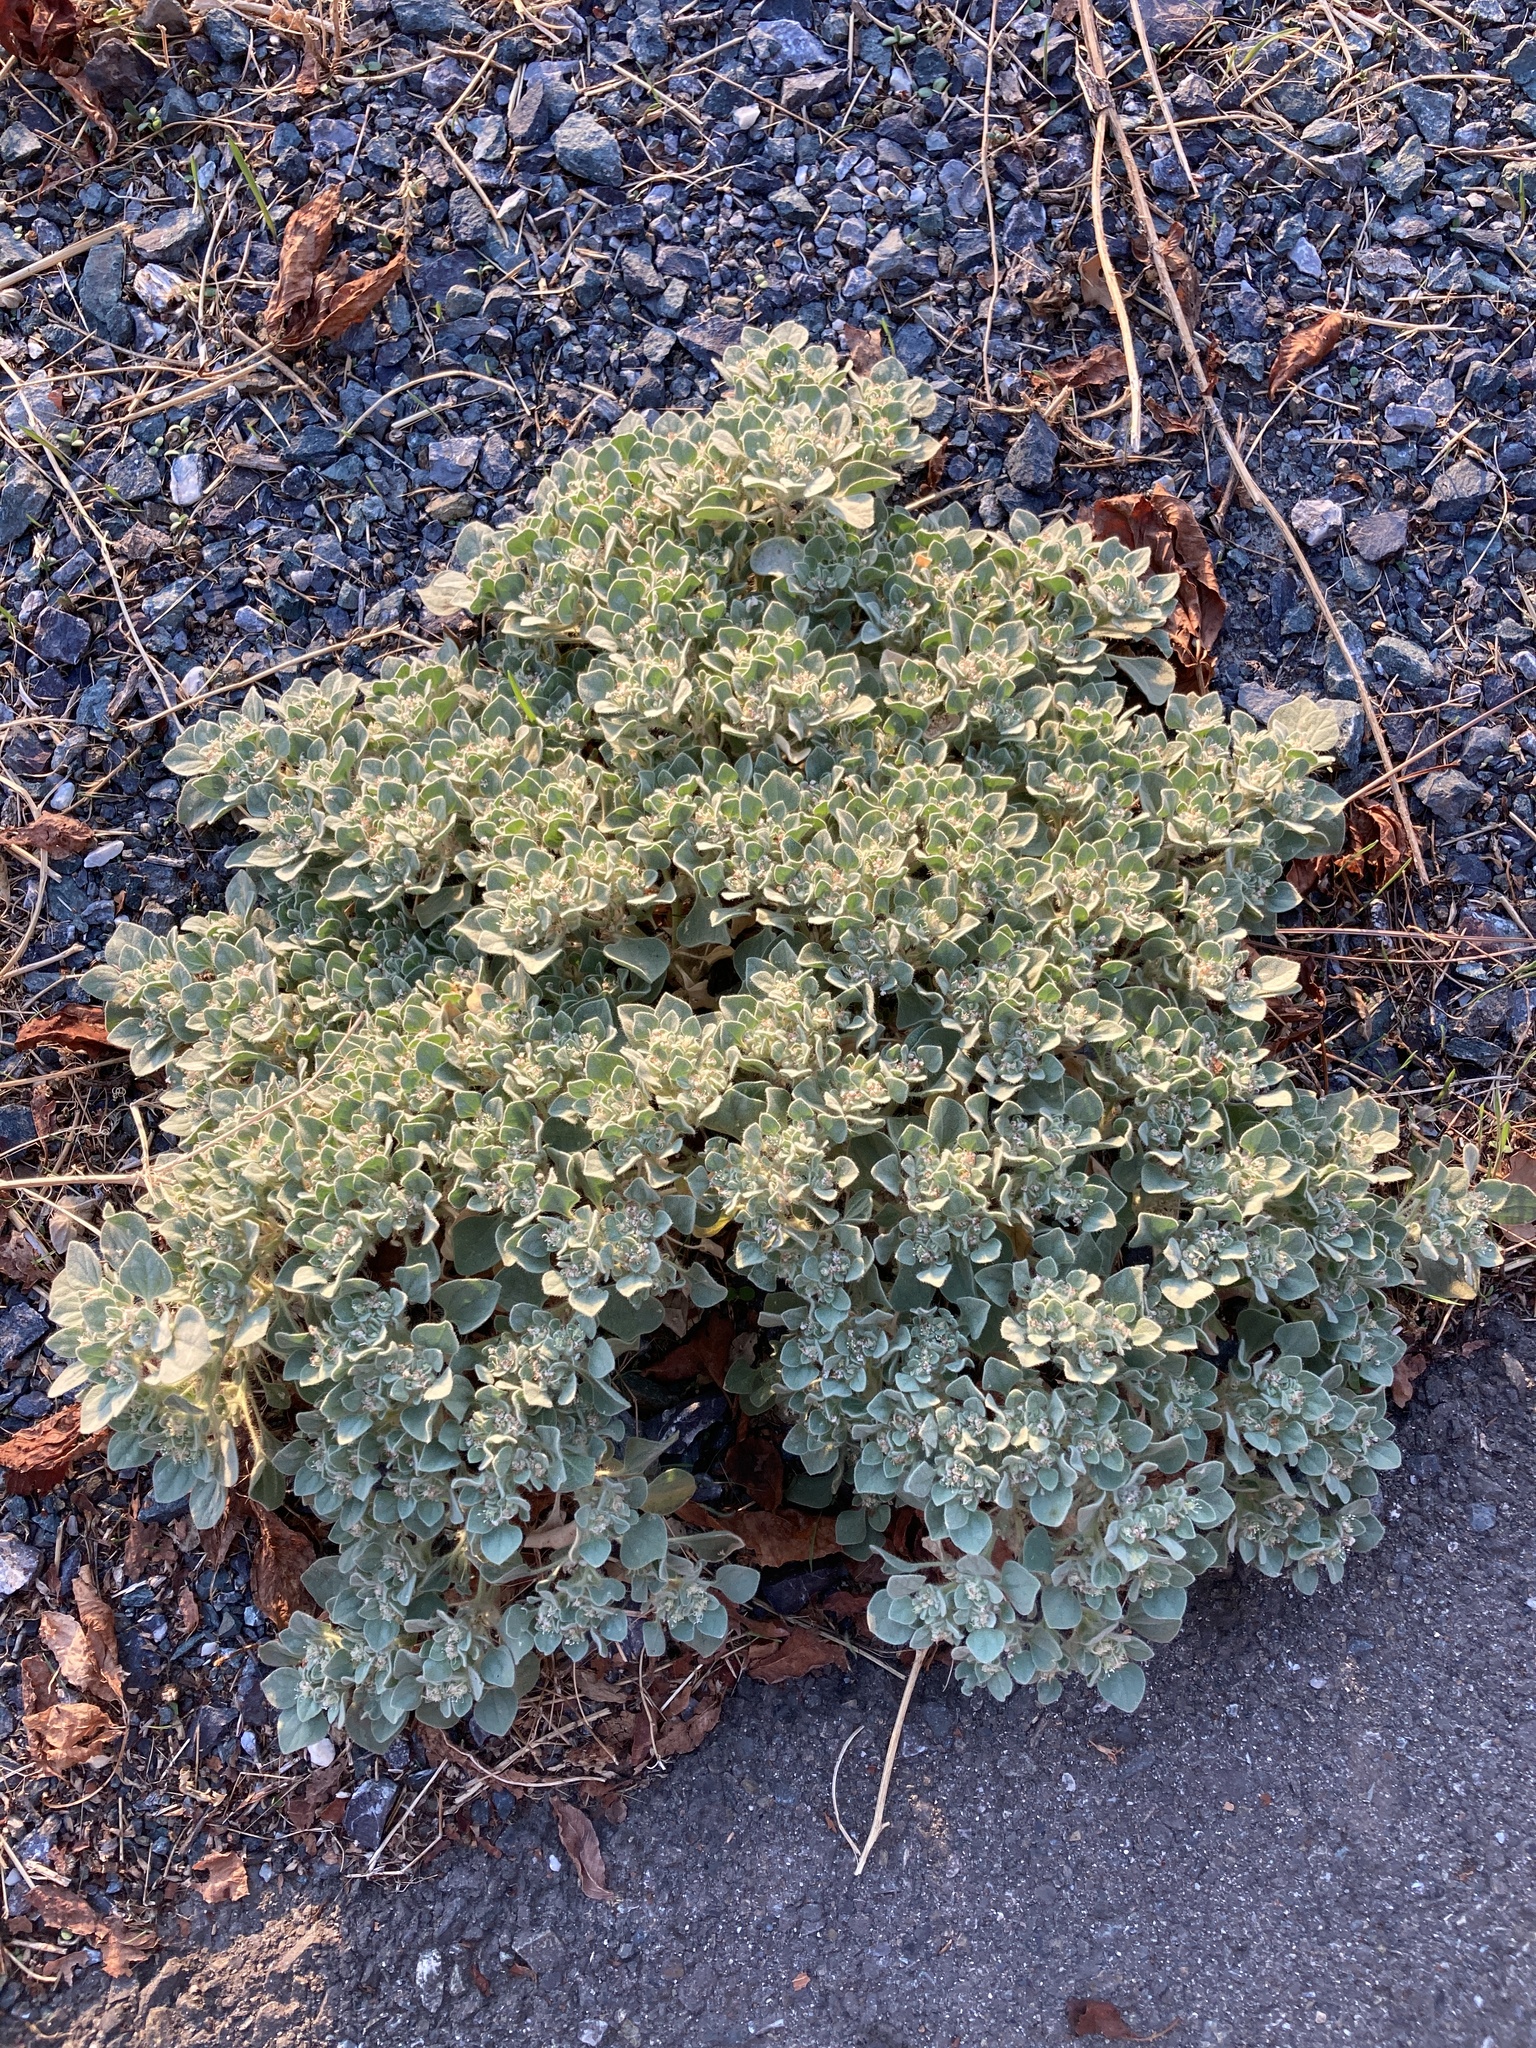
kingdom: Plantae
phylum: Tracheophyta
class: Magnoliopsida
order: Malpighiales
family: Euphorbiaceae
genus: Croton
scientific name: Croton setiger
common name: Dove weed
